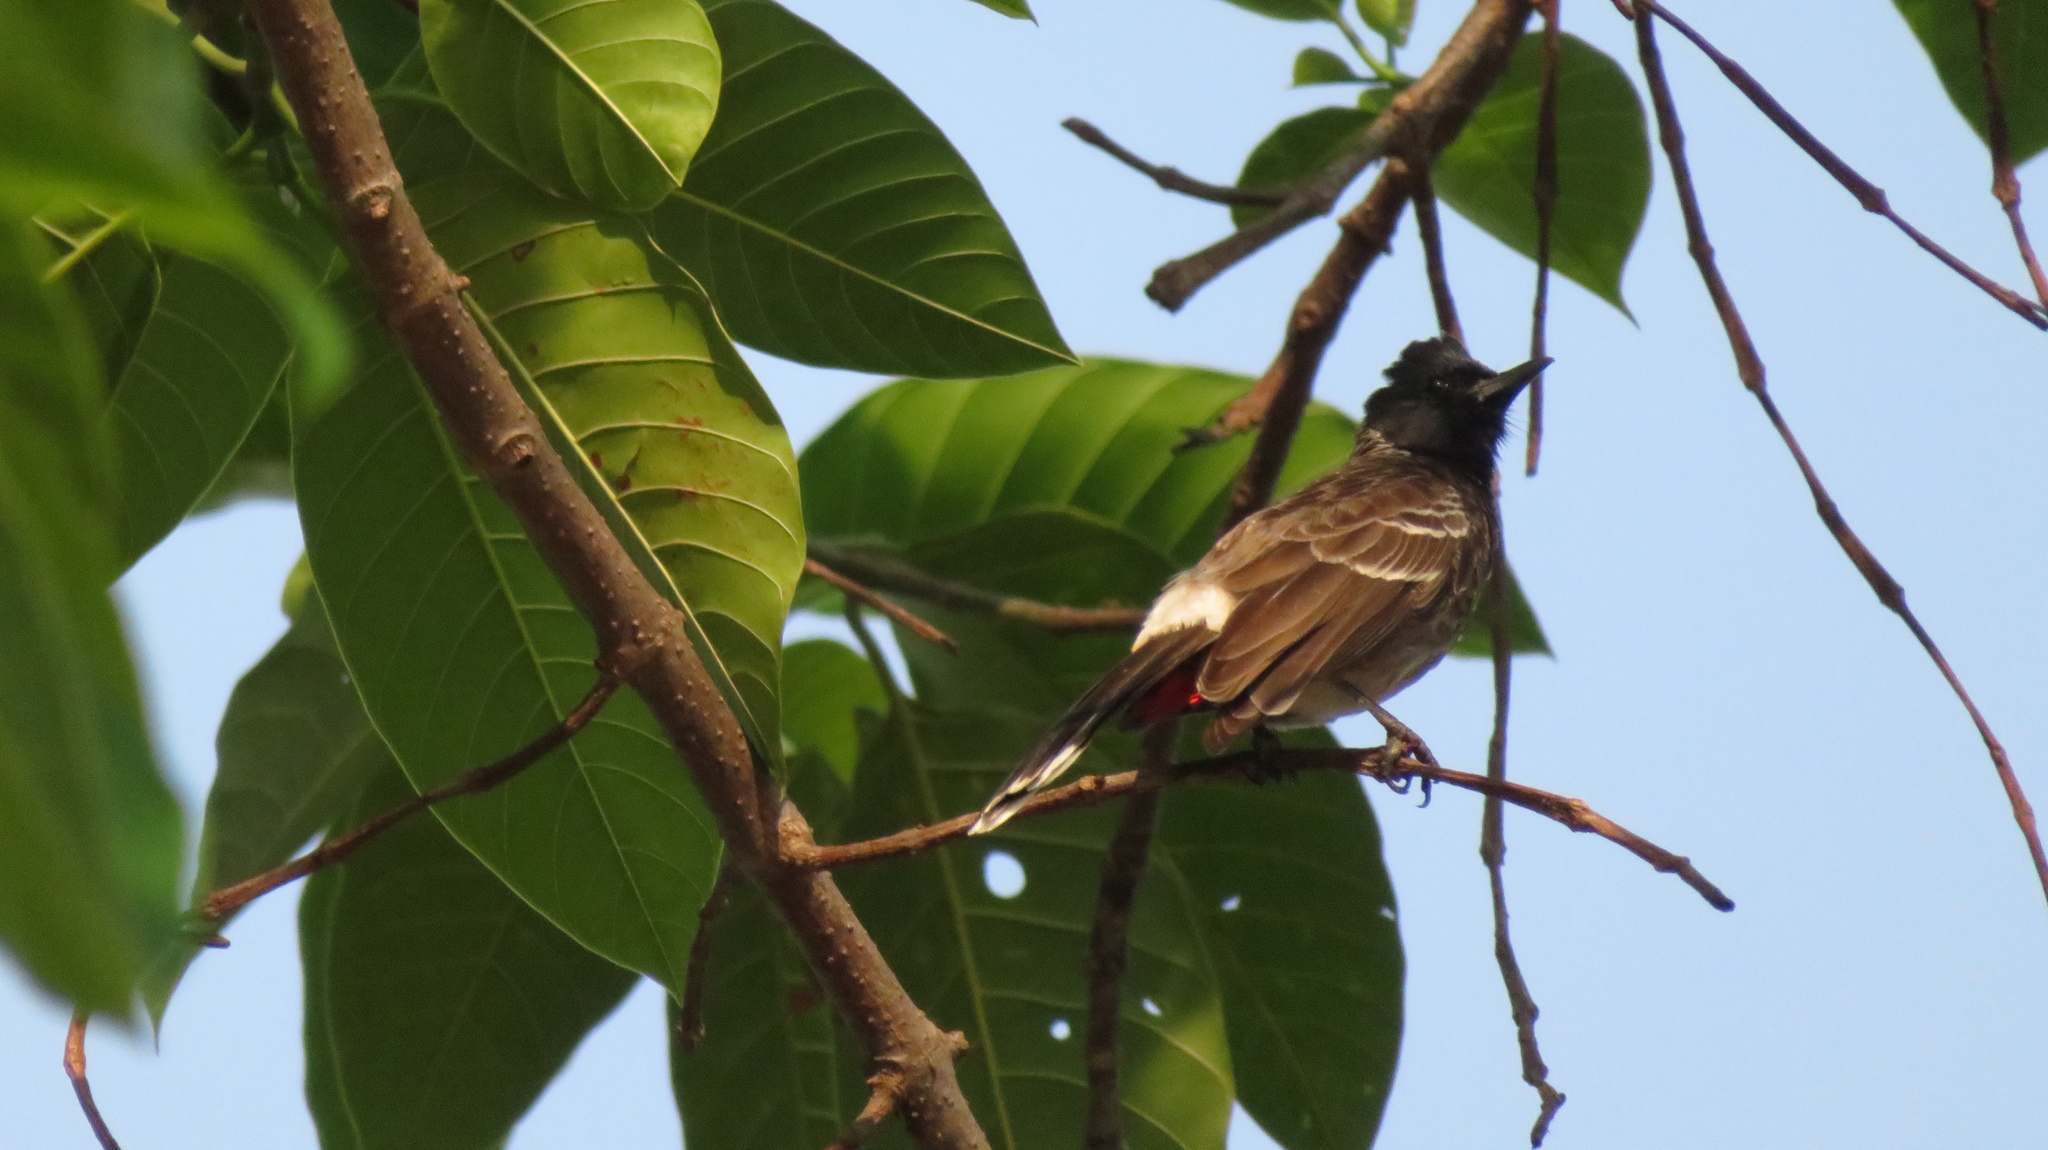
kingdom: Animalia
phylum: Chordata
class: Aves
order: Passeriformes
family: Pycnonotidae
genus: Pycnonotus
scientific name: Pycnonotus cafer
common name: Red-vented bulbul
